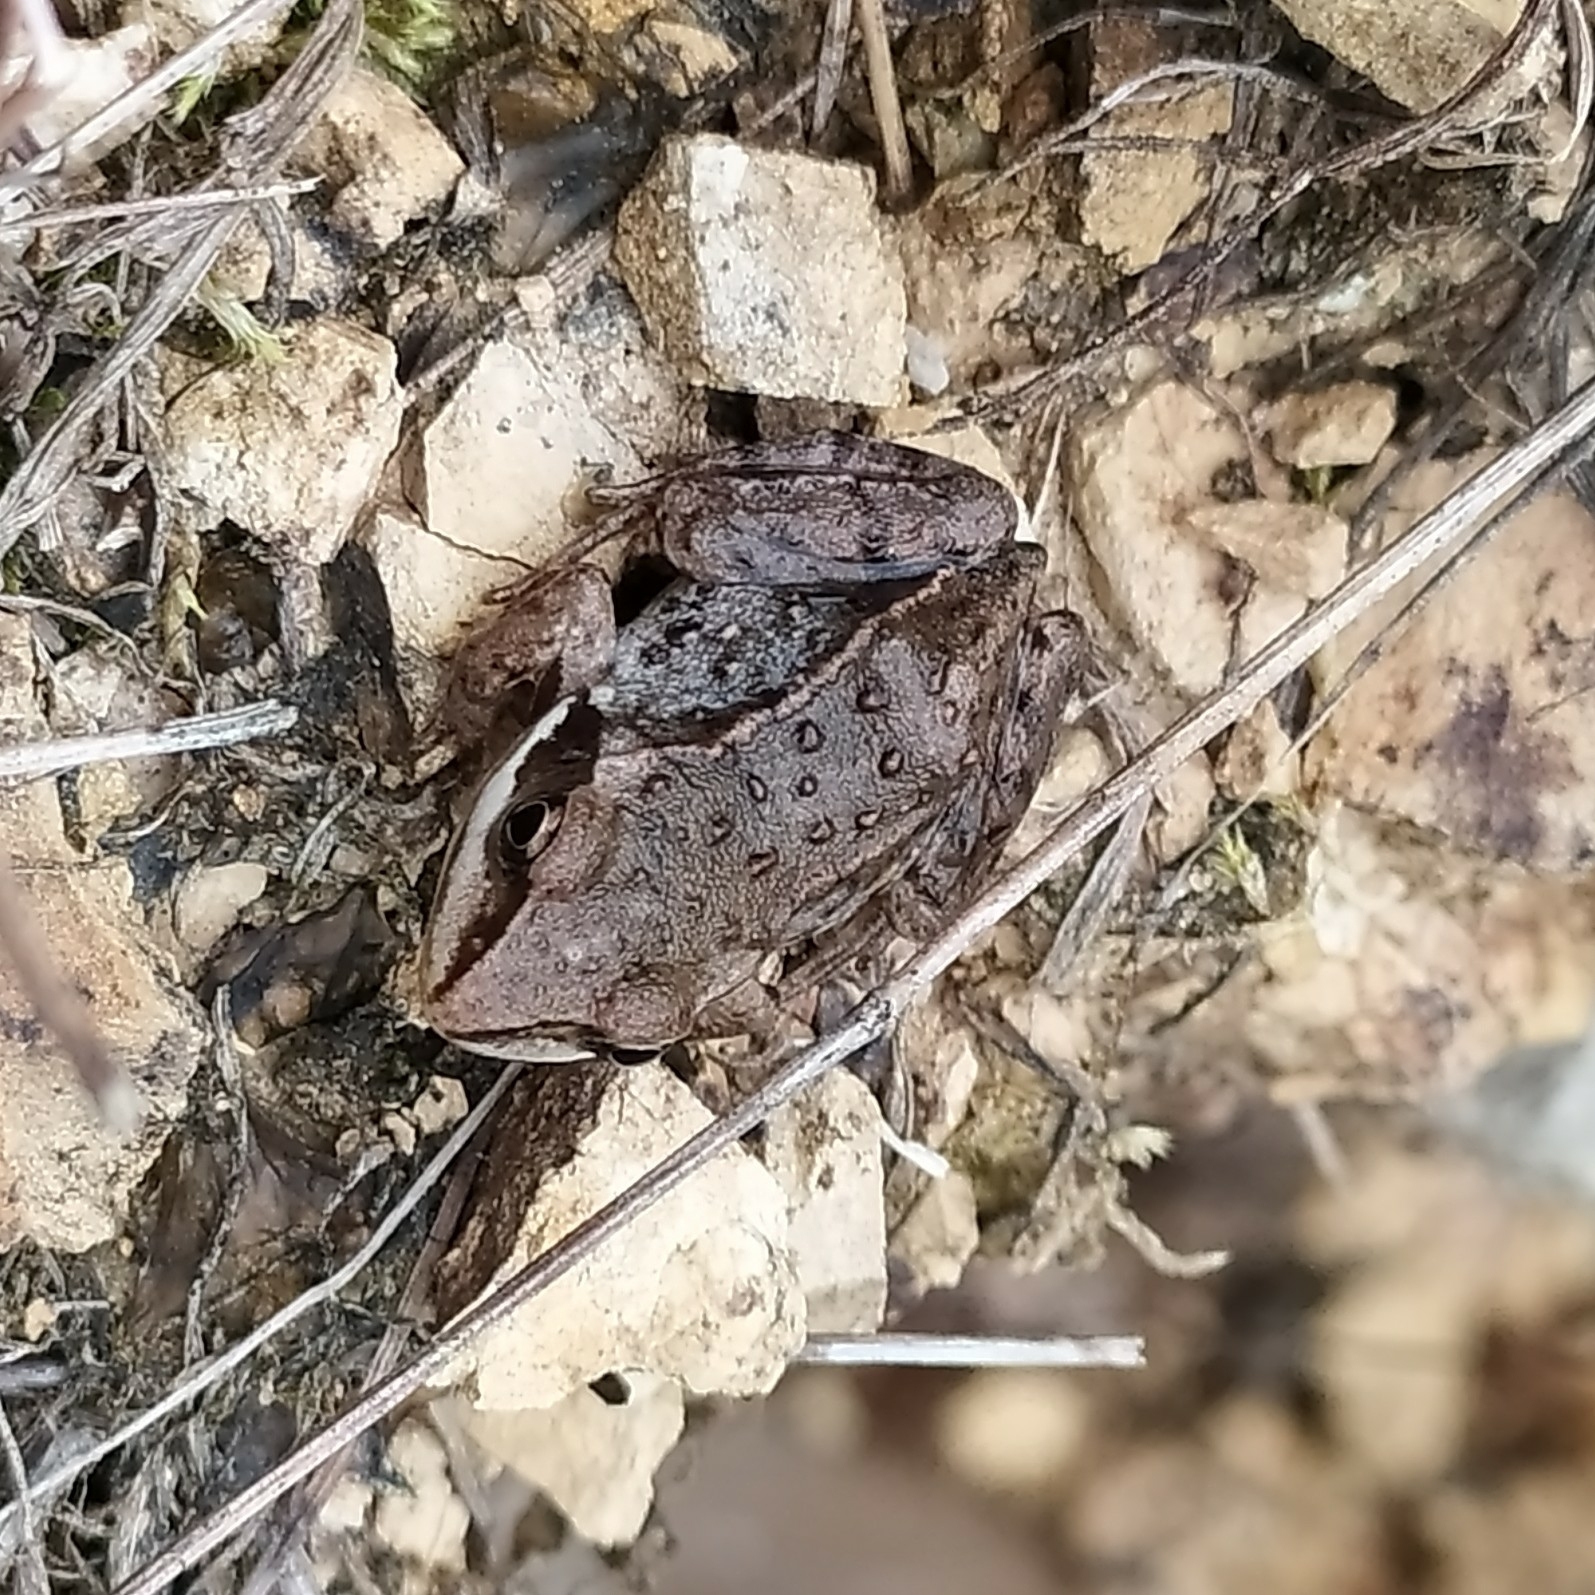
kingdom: Animalia
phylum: Chordata
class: Amphibia
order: Anura
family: Ranidae
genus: Rana
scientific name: Rana arvalis
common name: Moor frog
